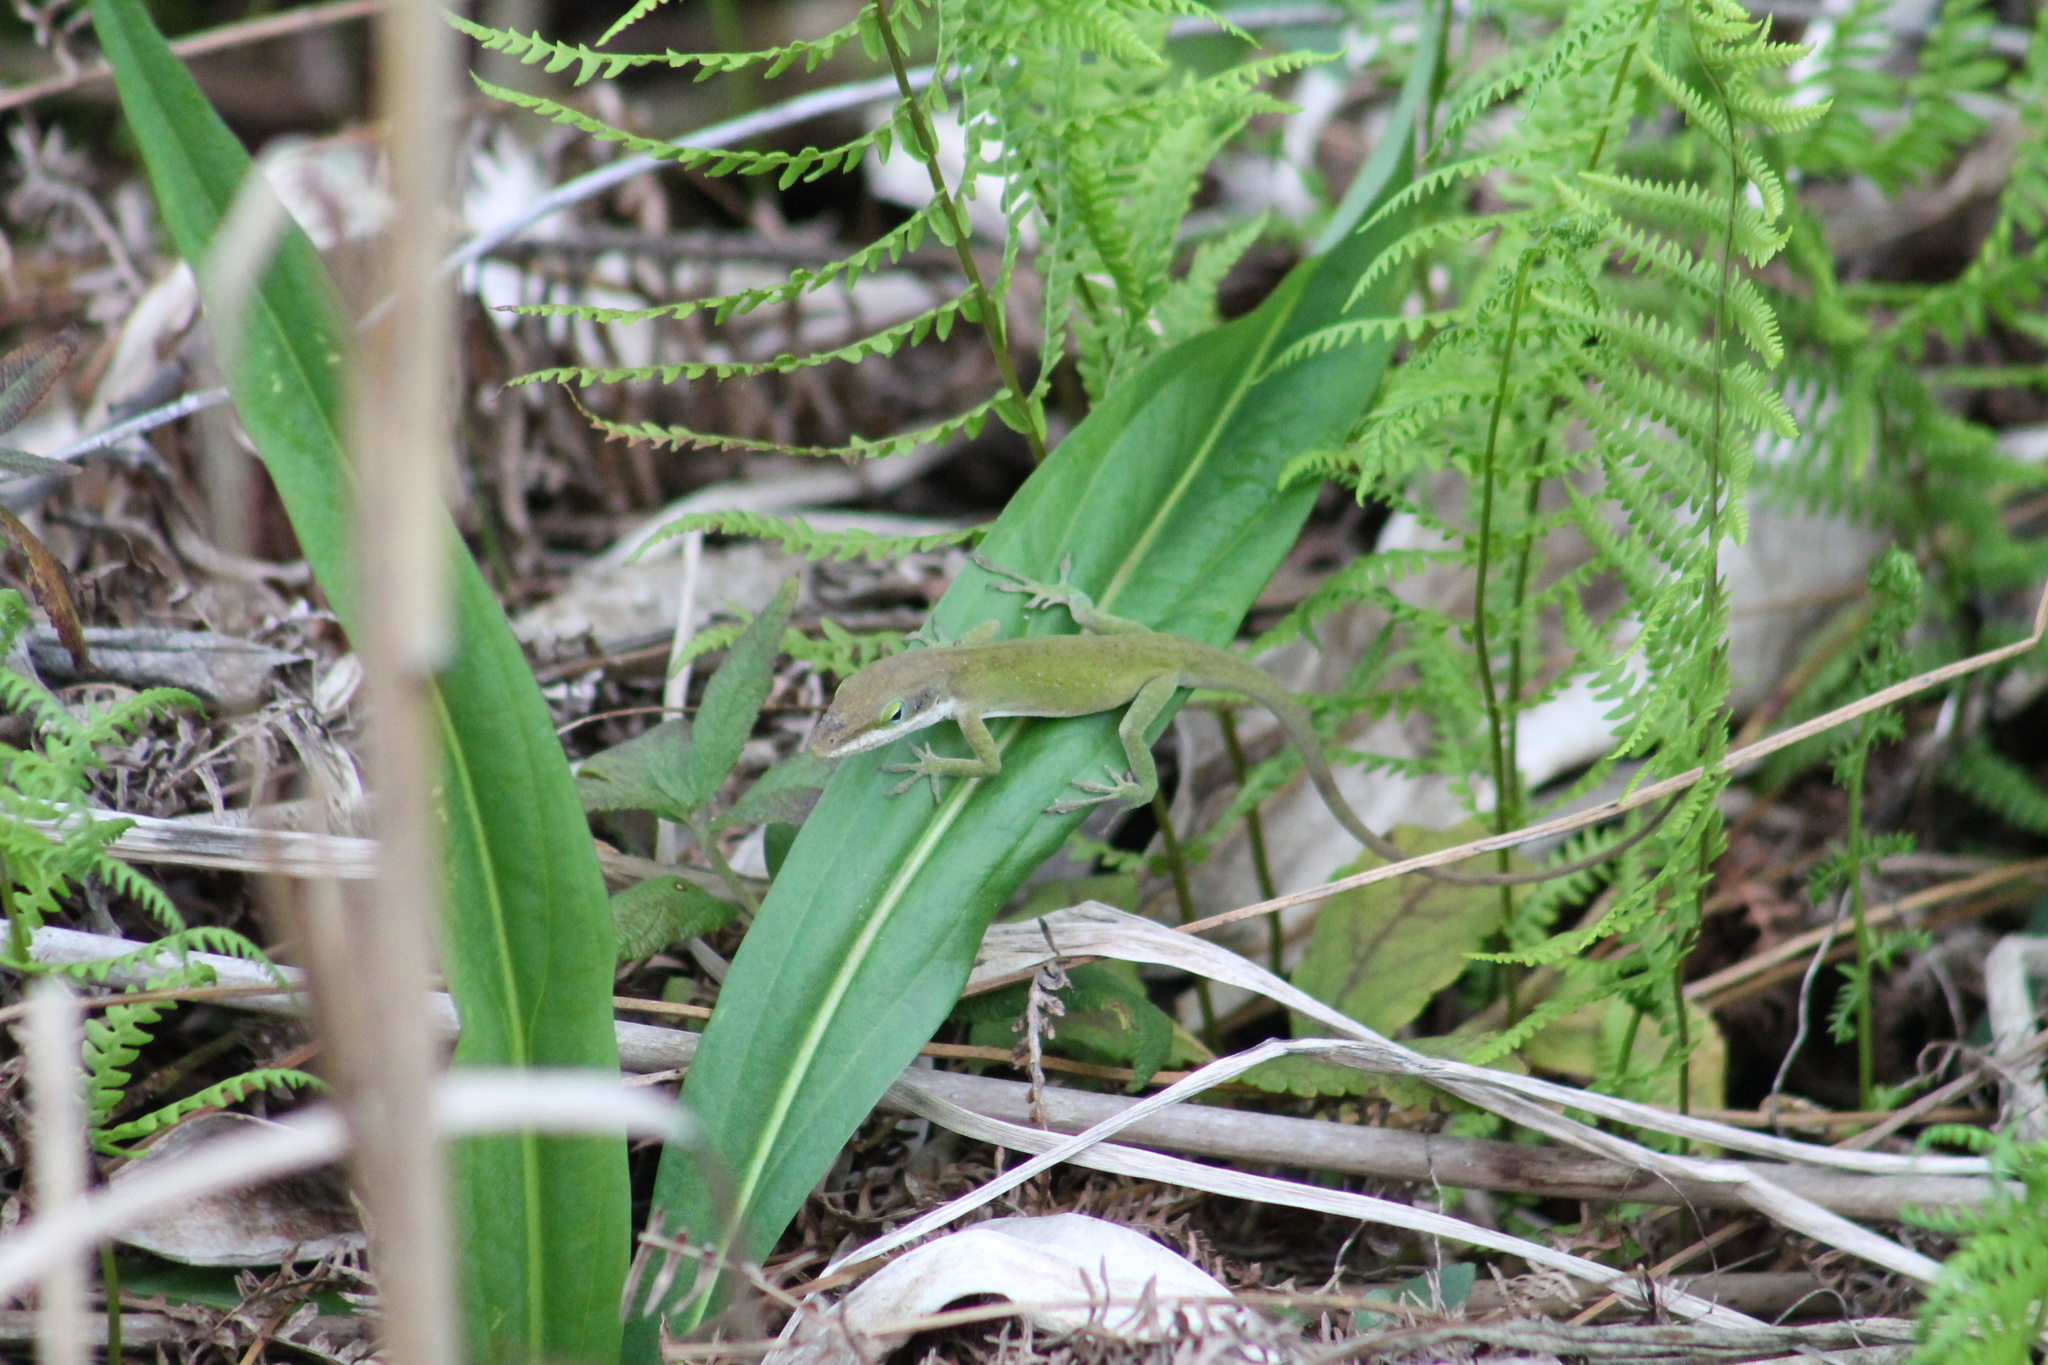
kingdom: Animalia
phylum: Chordata
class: Squamata
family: Dactyloidae
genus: Anolis
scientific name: Anolis carolinensis
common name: Green anole
